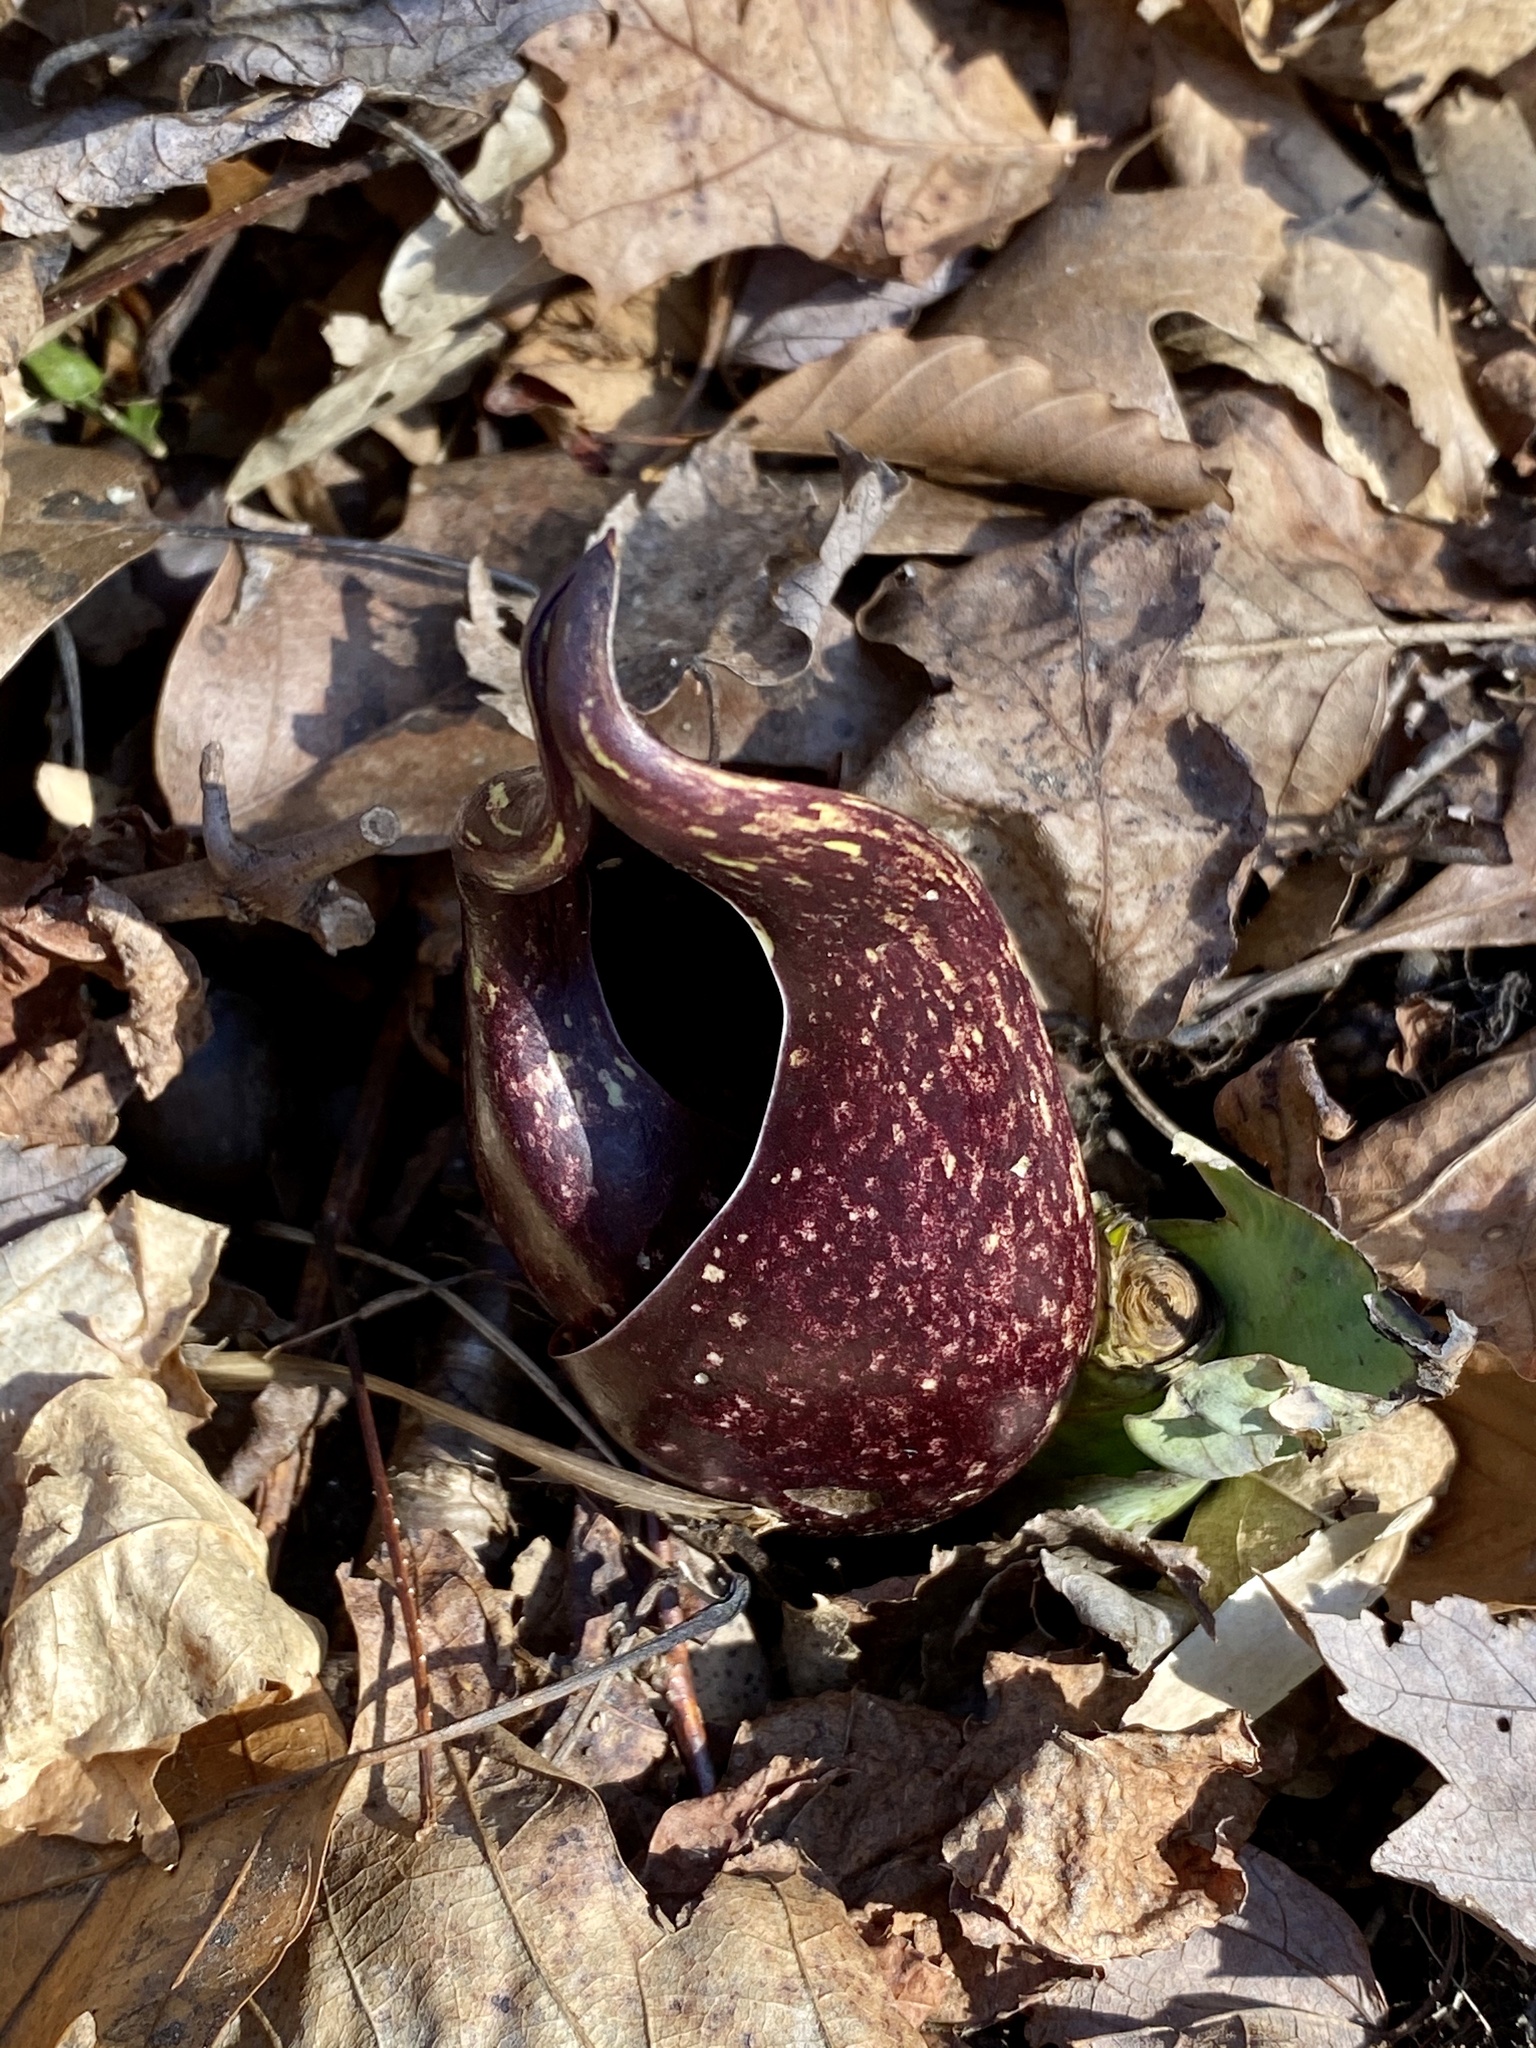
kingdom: Plantae
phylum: Tracheophyta
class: Liliopsida
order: Alismatales
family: Araceae
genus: Symplocarpus
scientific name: Symplocarpus foetidus
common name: Eastern skunk cabbage
